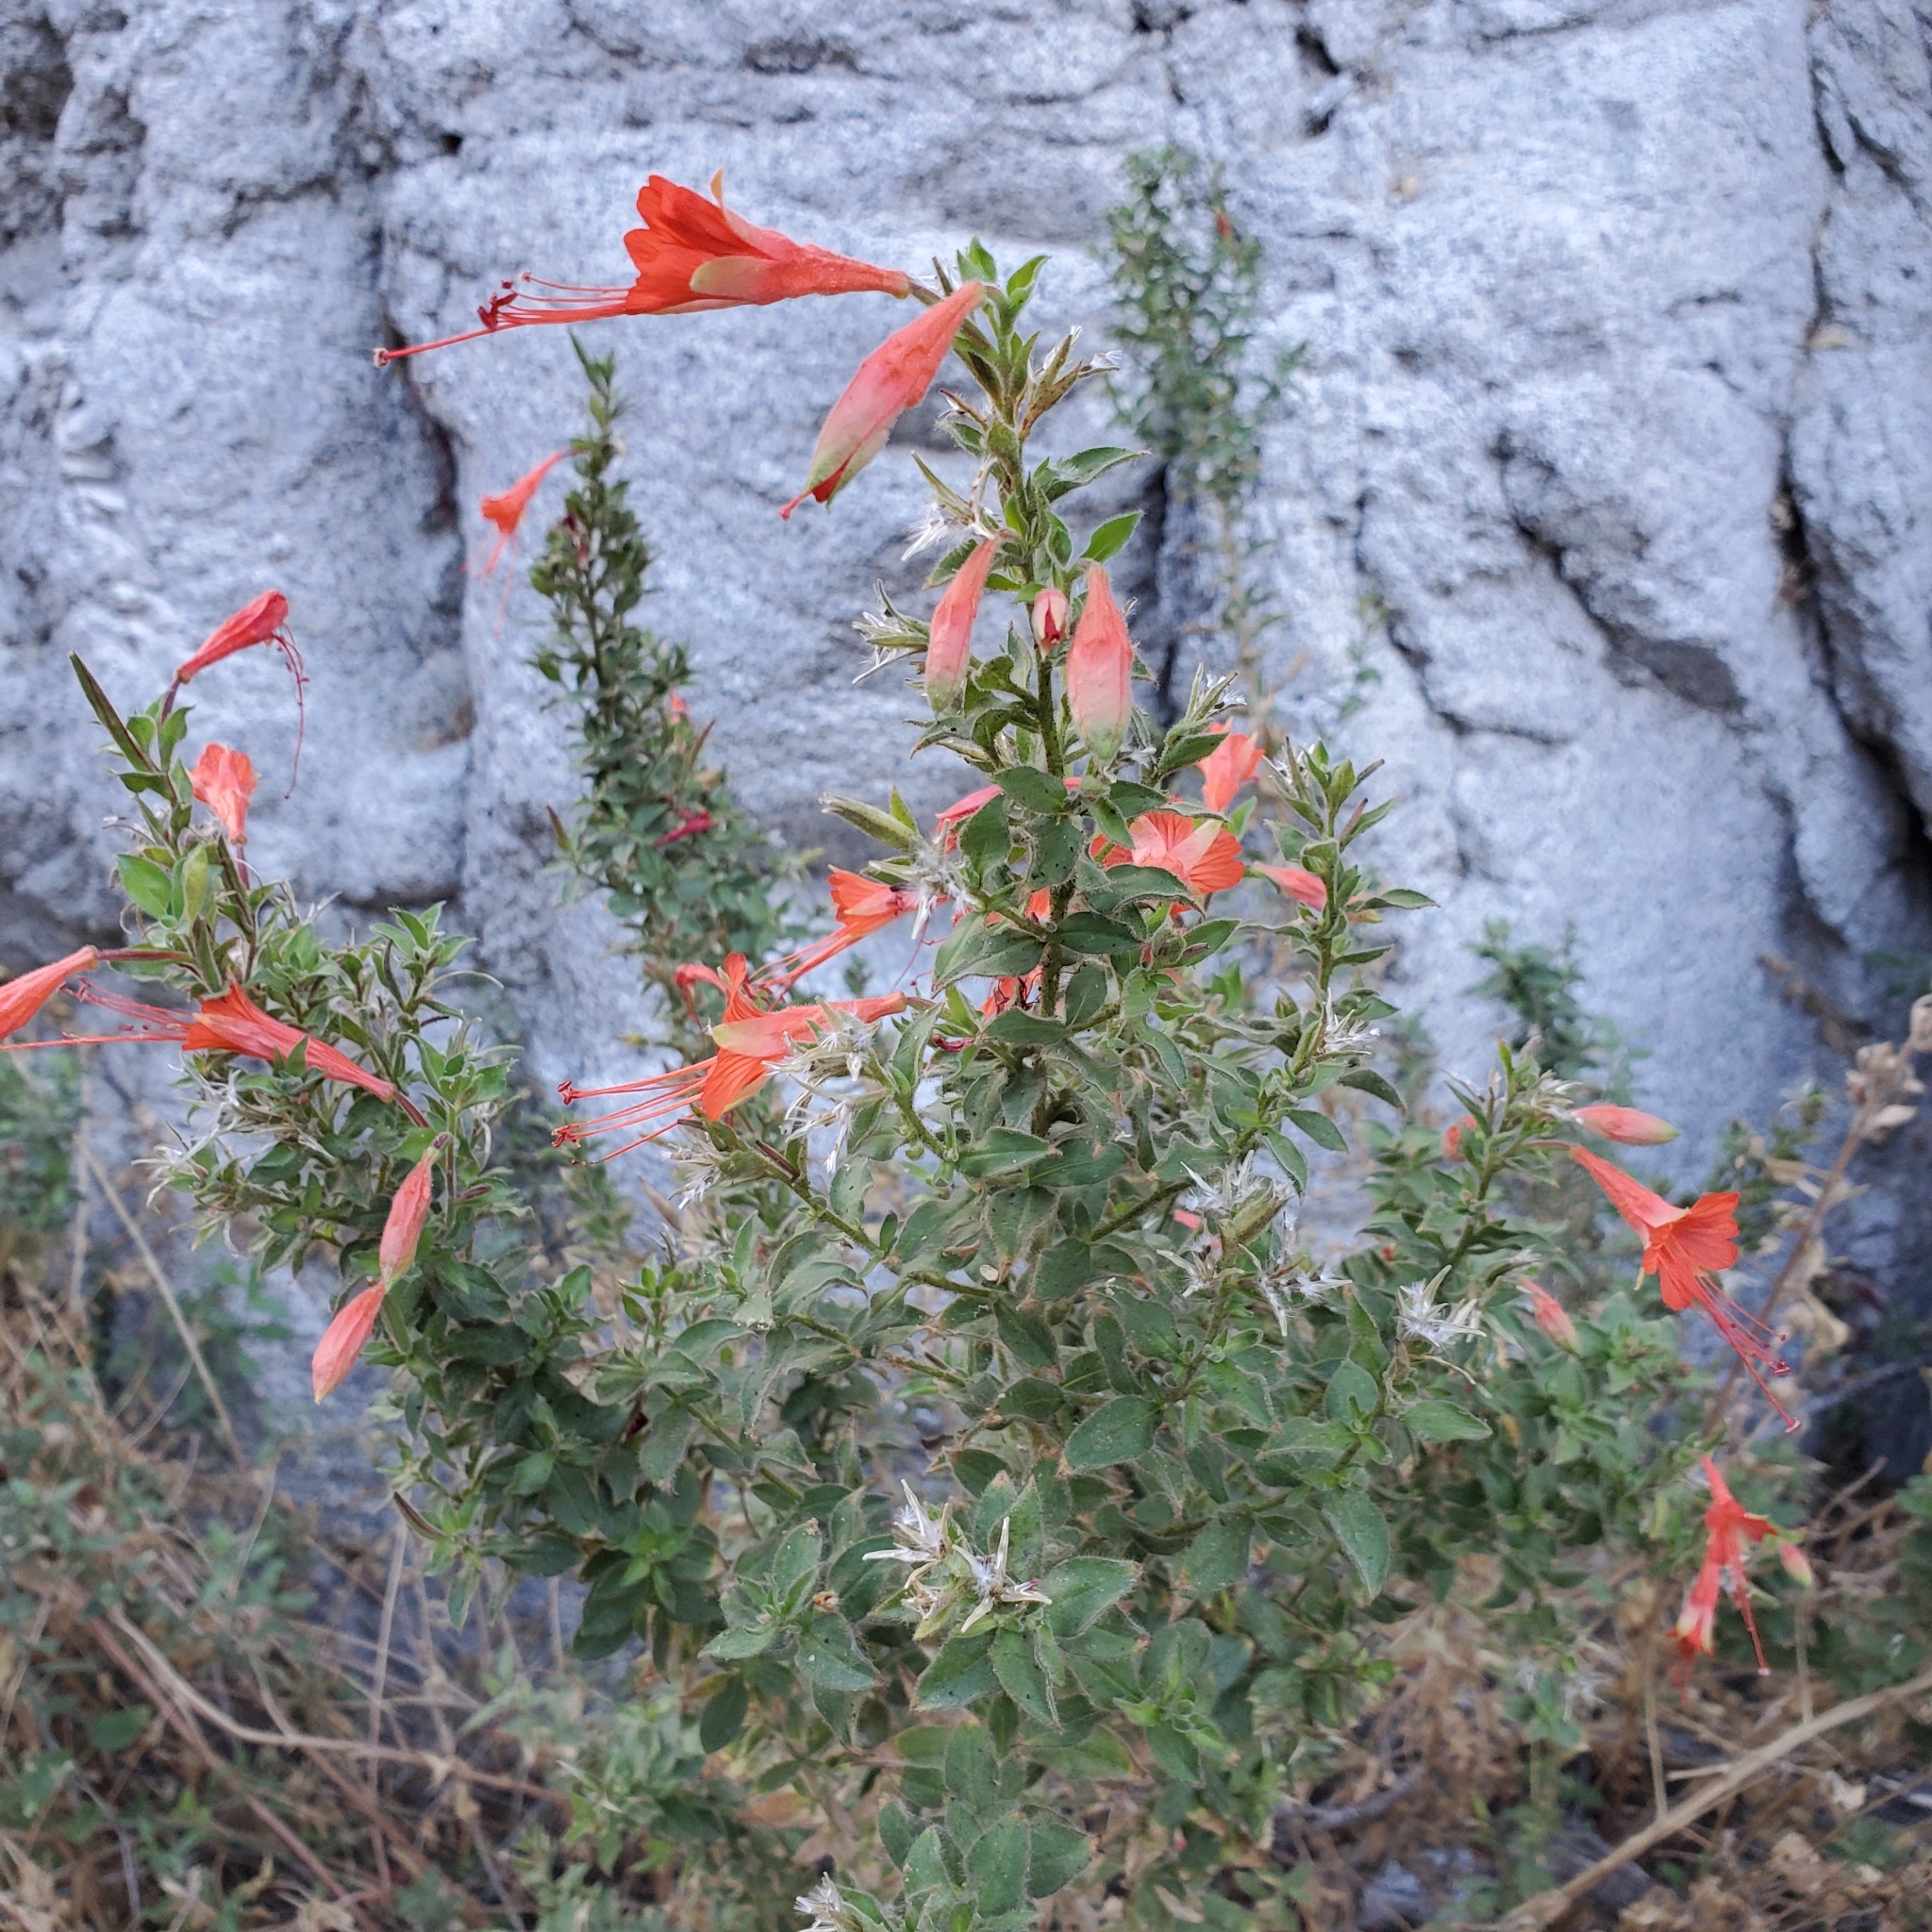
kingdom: Plantae
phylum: Tracheophyta
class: Magnoliopsida
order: Myrtales
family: Onagraceae
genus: Epilobium
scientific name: Epilobium canum
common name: California-fuchsia
